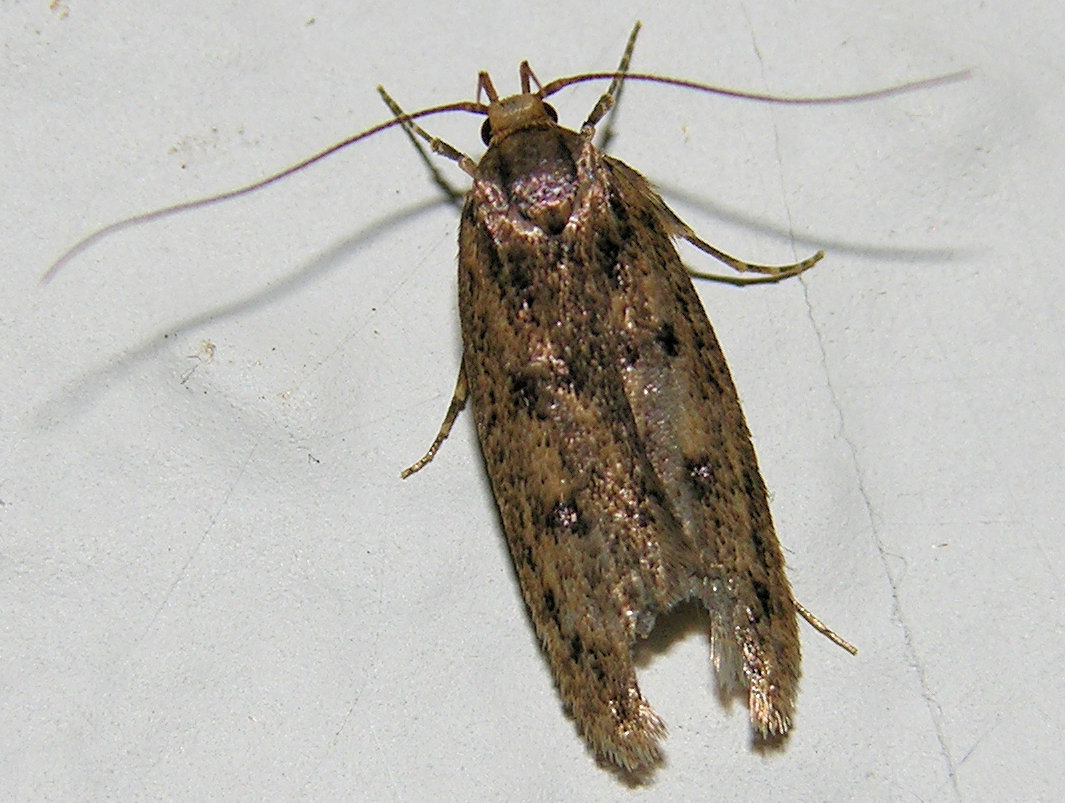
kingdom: Animalia
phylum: Arthropoda
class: Insecta
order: Lepidoptera
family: Oecophoridae
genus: Hofmannophila
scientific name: Hofmannophila pseudospretella
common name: Brown house moth
